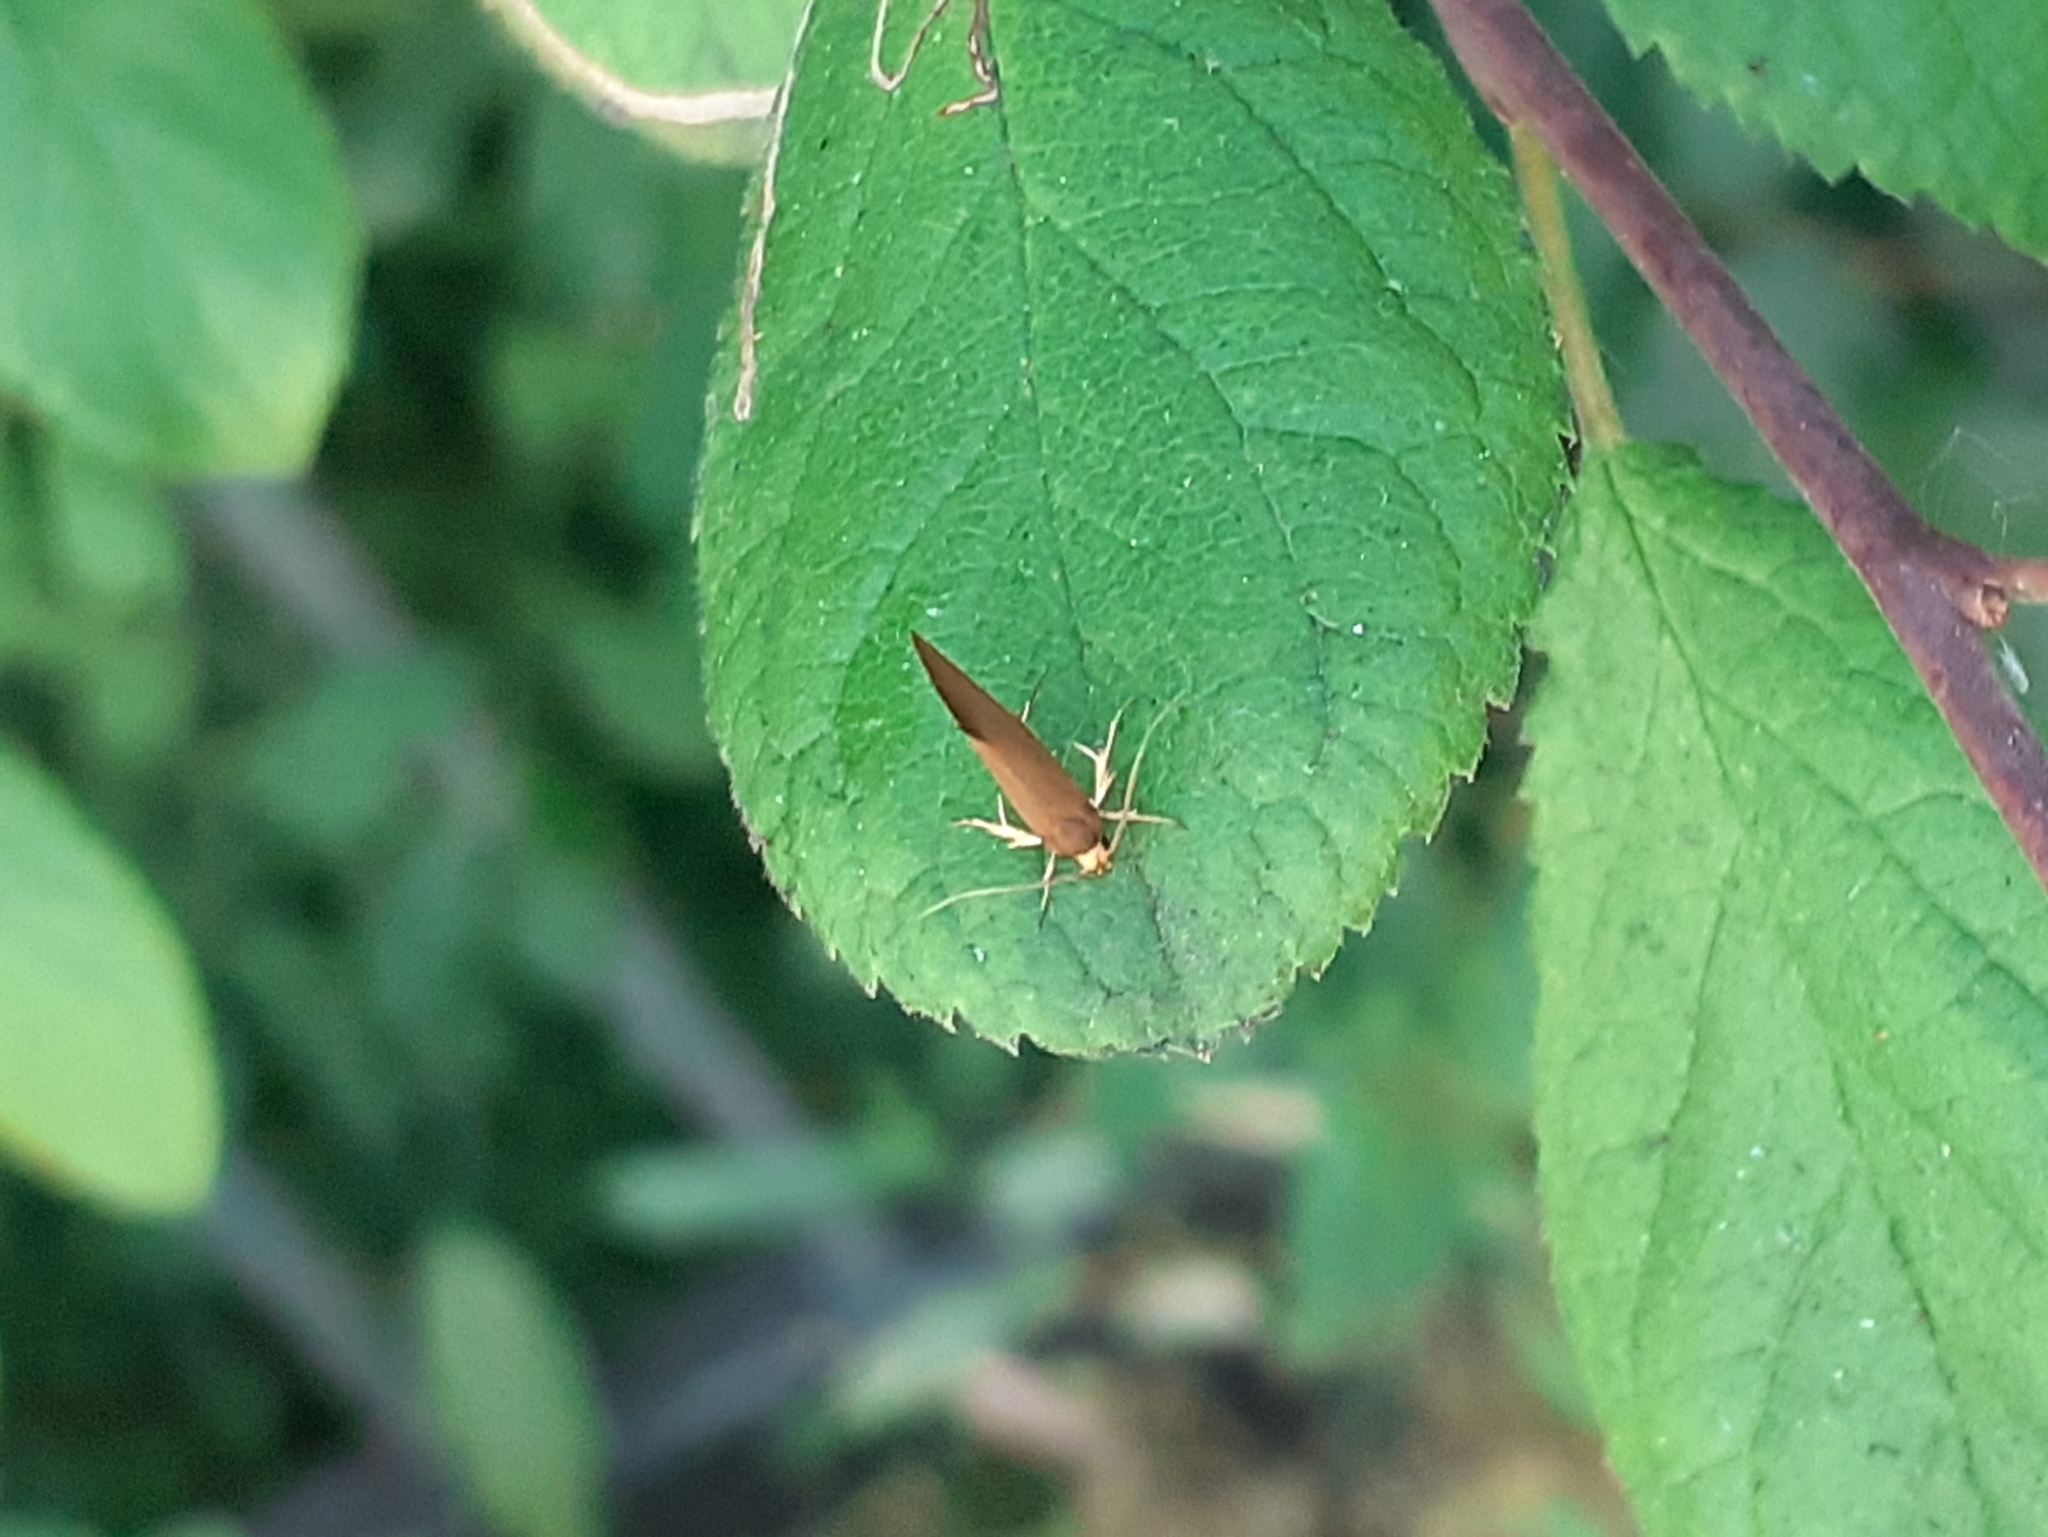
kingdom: Animalia
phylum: Arthropoda
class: Insecta
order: Lepidoptera
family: Oecophoridae
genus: Borkhausenia
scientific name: Borkhausenia Crassa unitella
